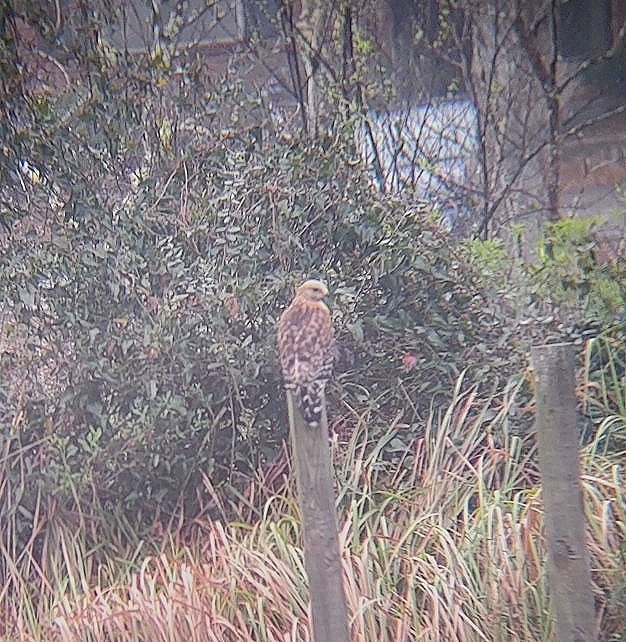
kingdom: Animalia
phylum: Chordata
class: Aves
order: Accipitriformes
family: Accipitridae
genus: Buteo
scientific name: Buteo lineatus
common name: Red-shouldered hawk
